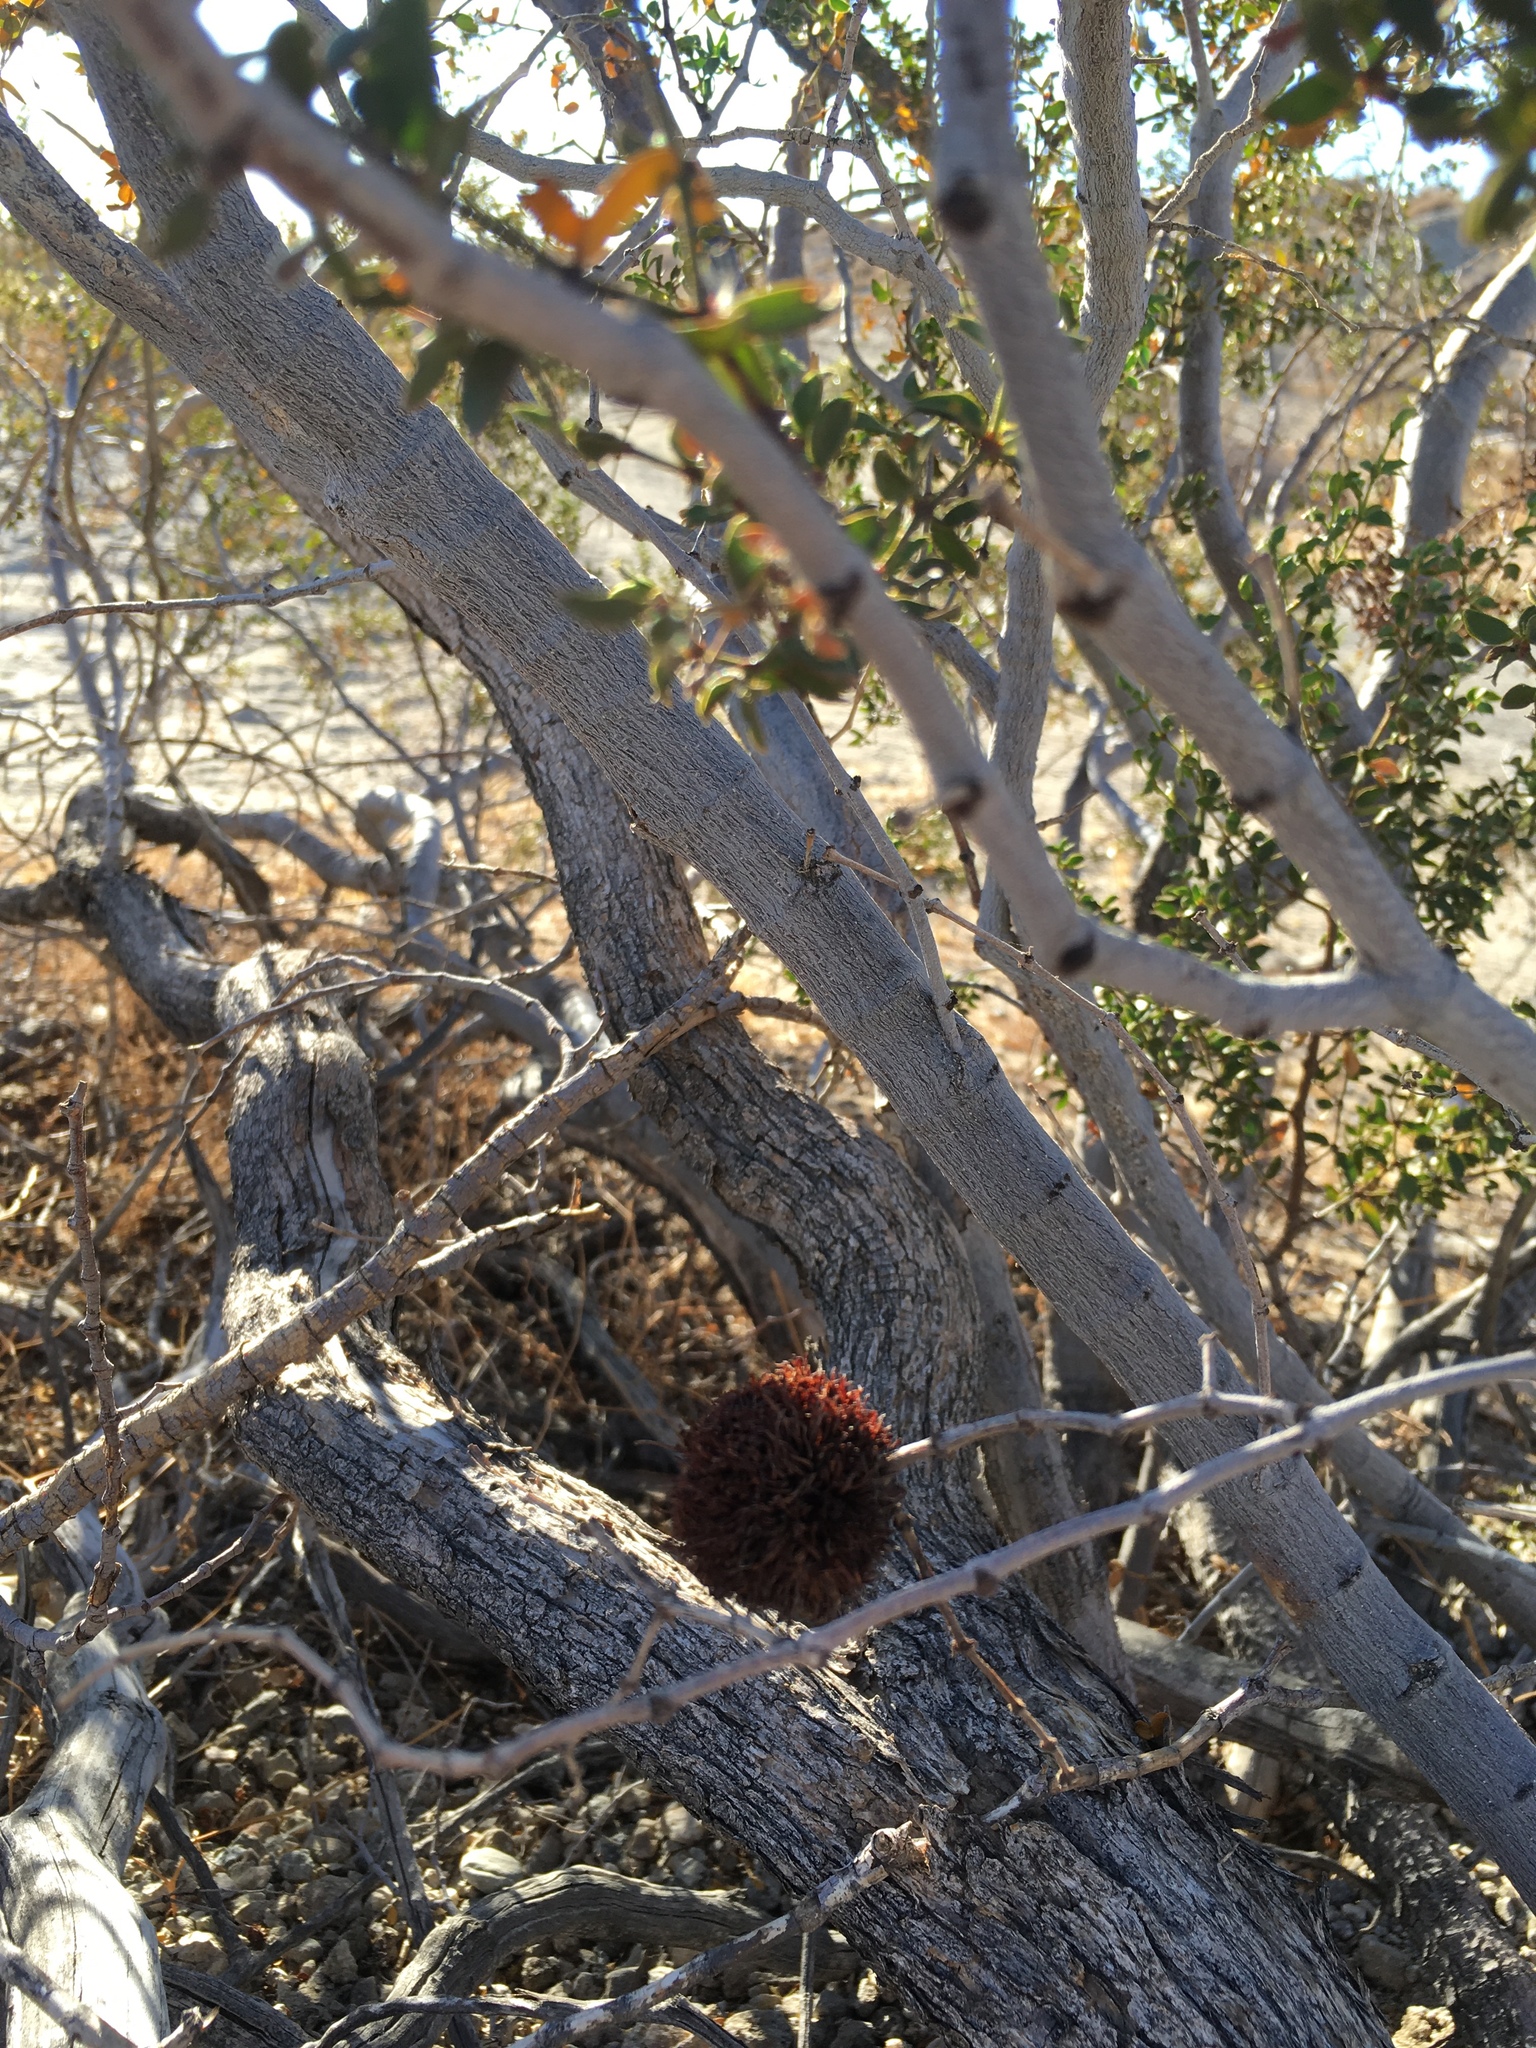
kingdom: Animalia
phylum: Arthropoda
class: Insecta
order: Diptera
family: Cecidomyiidae
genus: Asphondylia
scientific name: Asphondylia auripila
